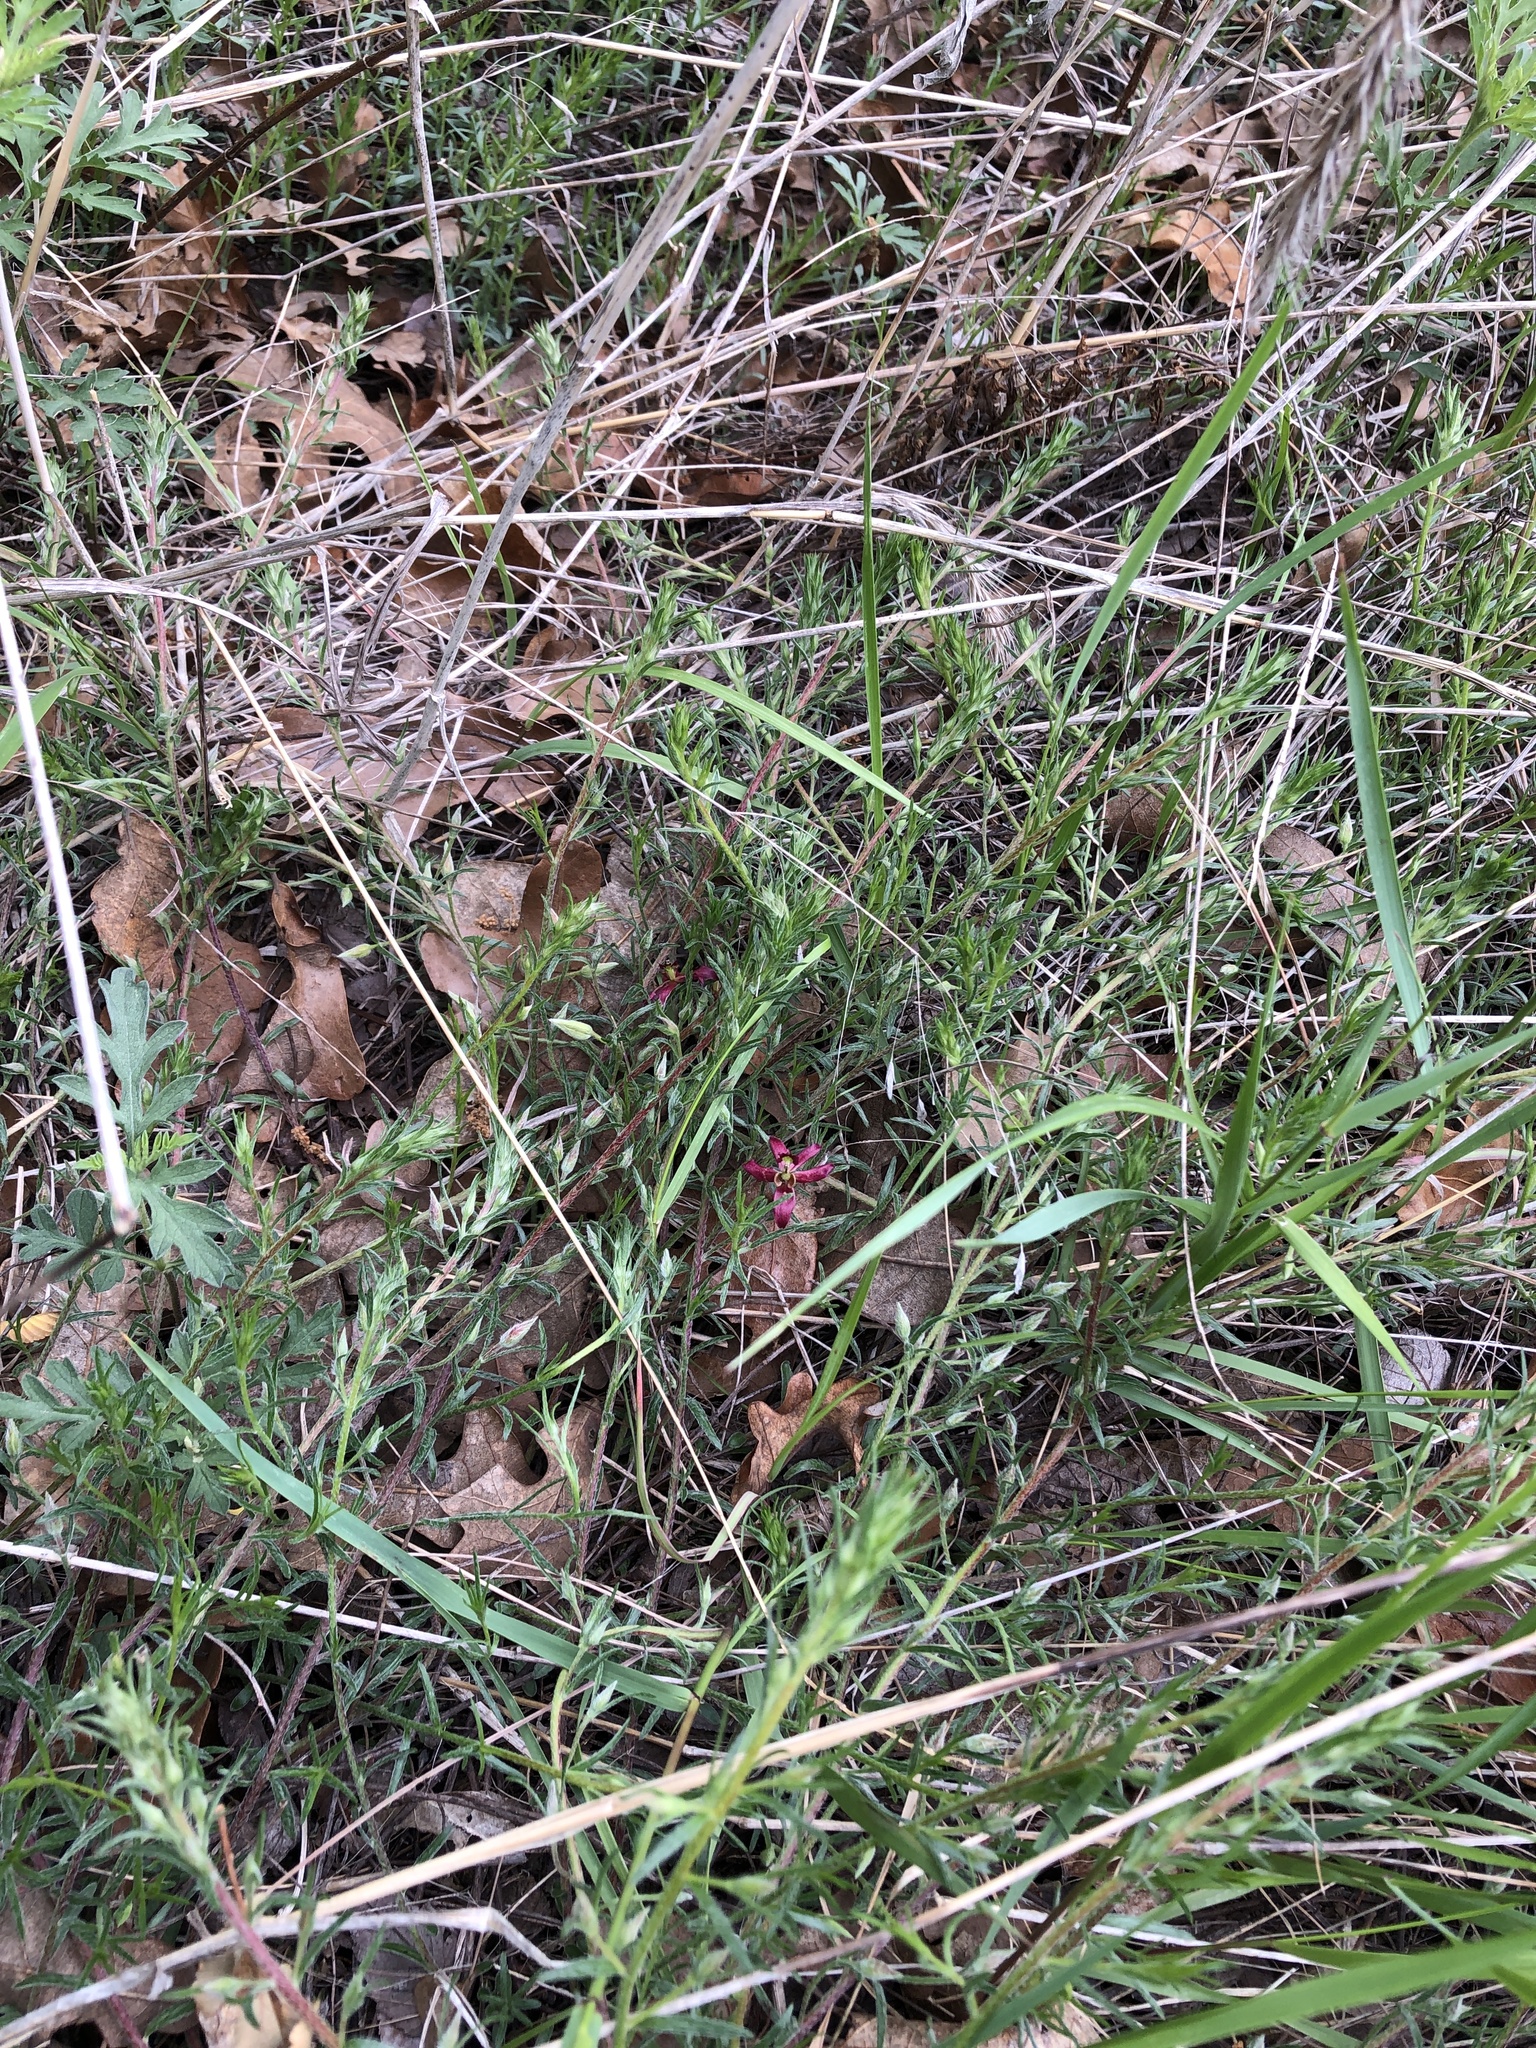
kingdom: Plantae
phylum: Tracheophyta
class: Magnoliopsida
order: Zygophyllales
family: Krameriaceae
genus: Krameria
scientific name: Krameria lanceolata
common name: Ratany
